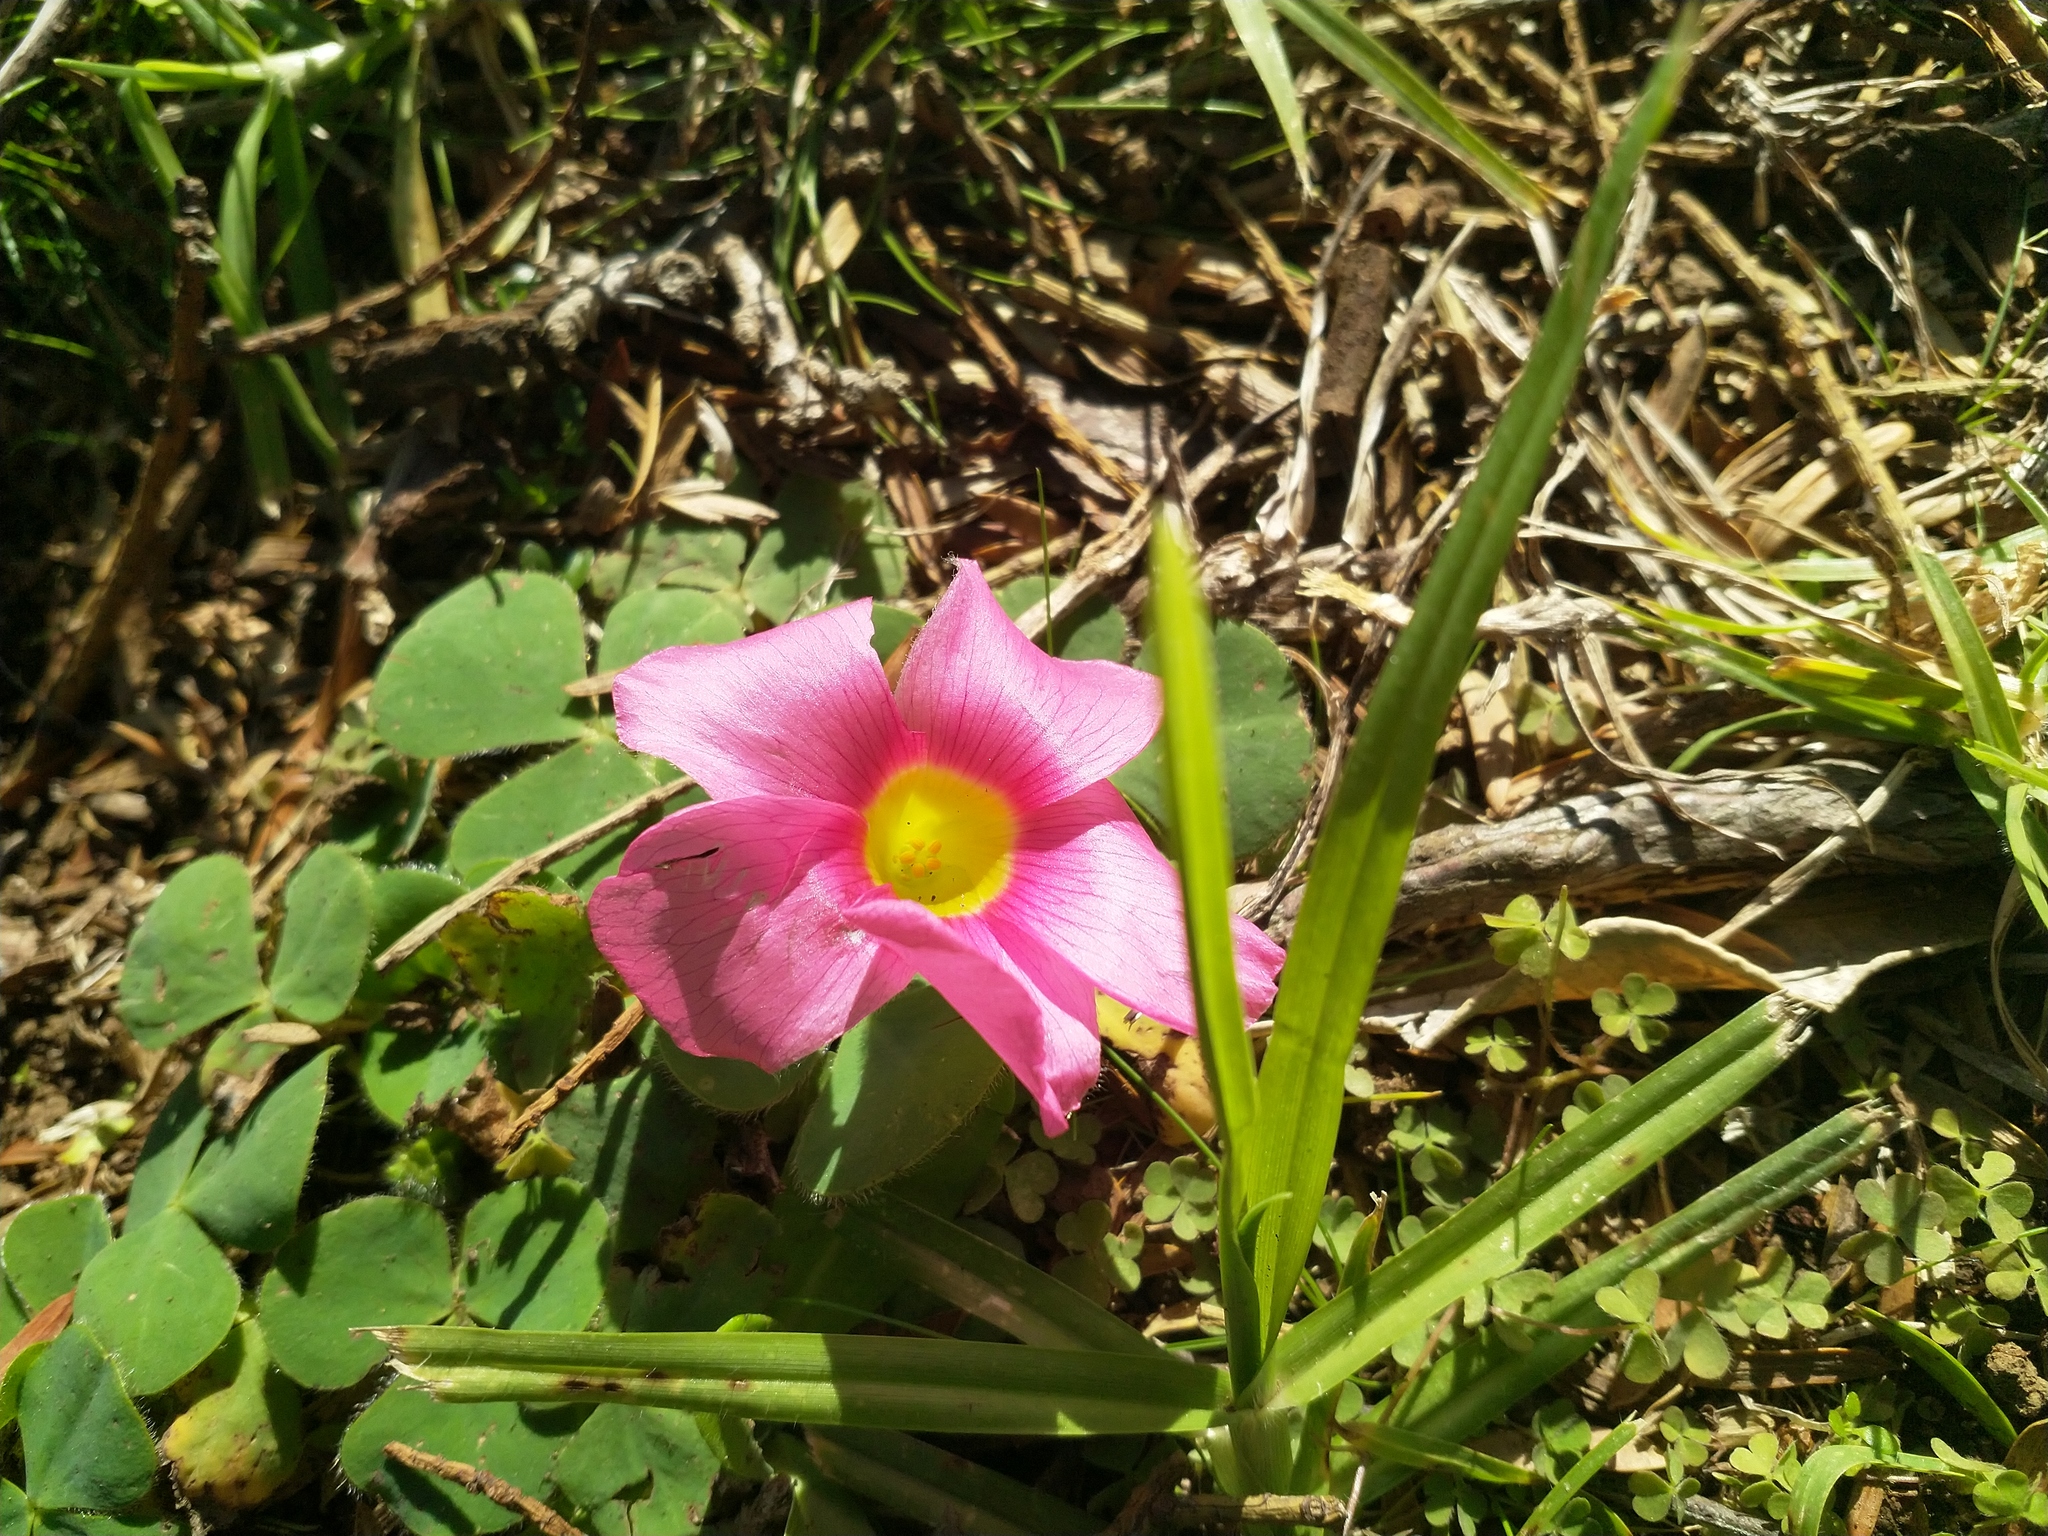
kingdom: Plantae
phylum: Tracheophyta
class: Magnoliopsida
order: Oxalidales
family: Oxalidaceae
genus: Oxalis
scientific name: Oxalis purpurea
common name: Purple woodsorrel
